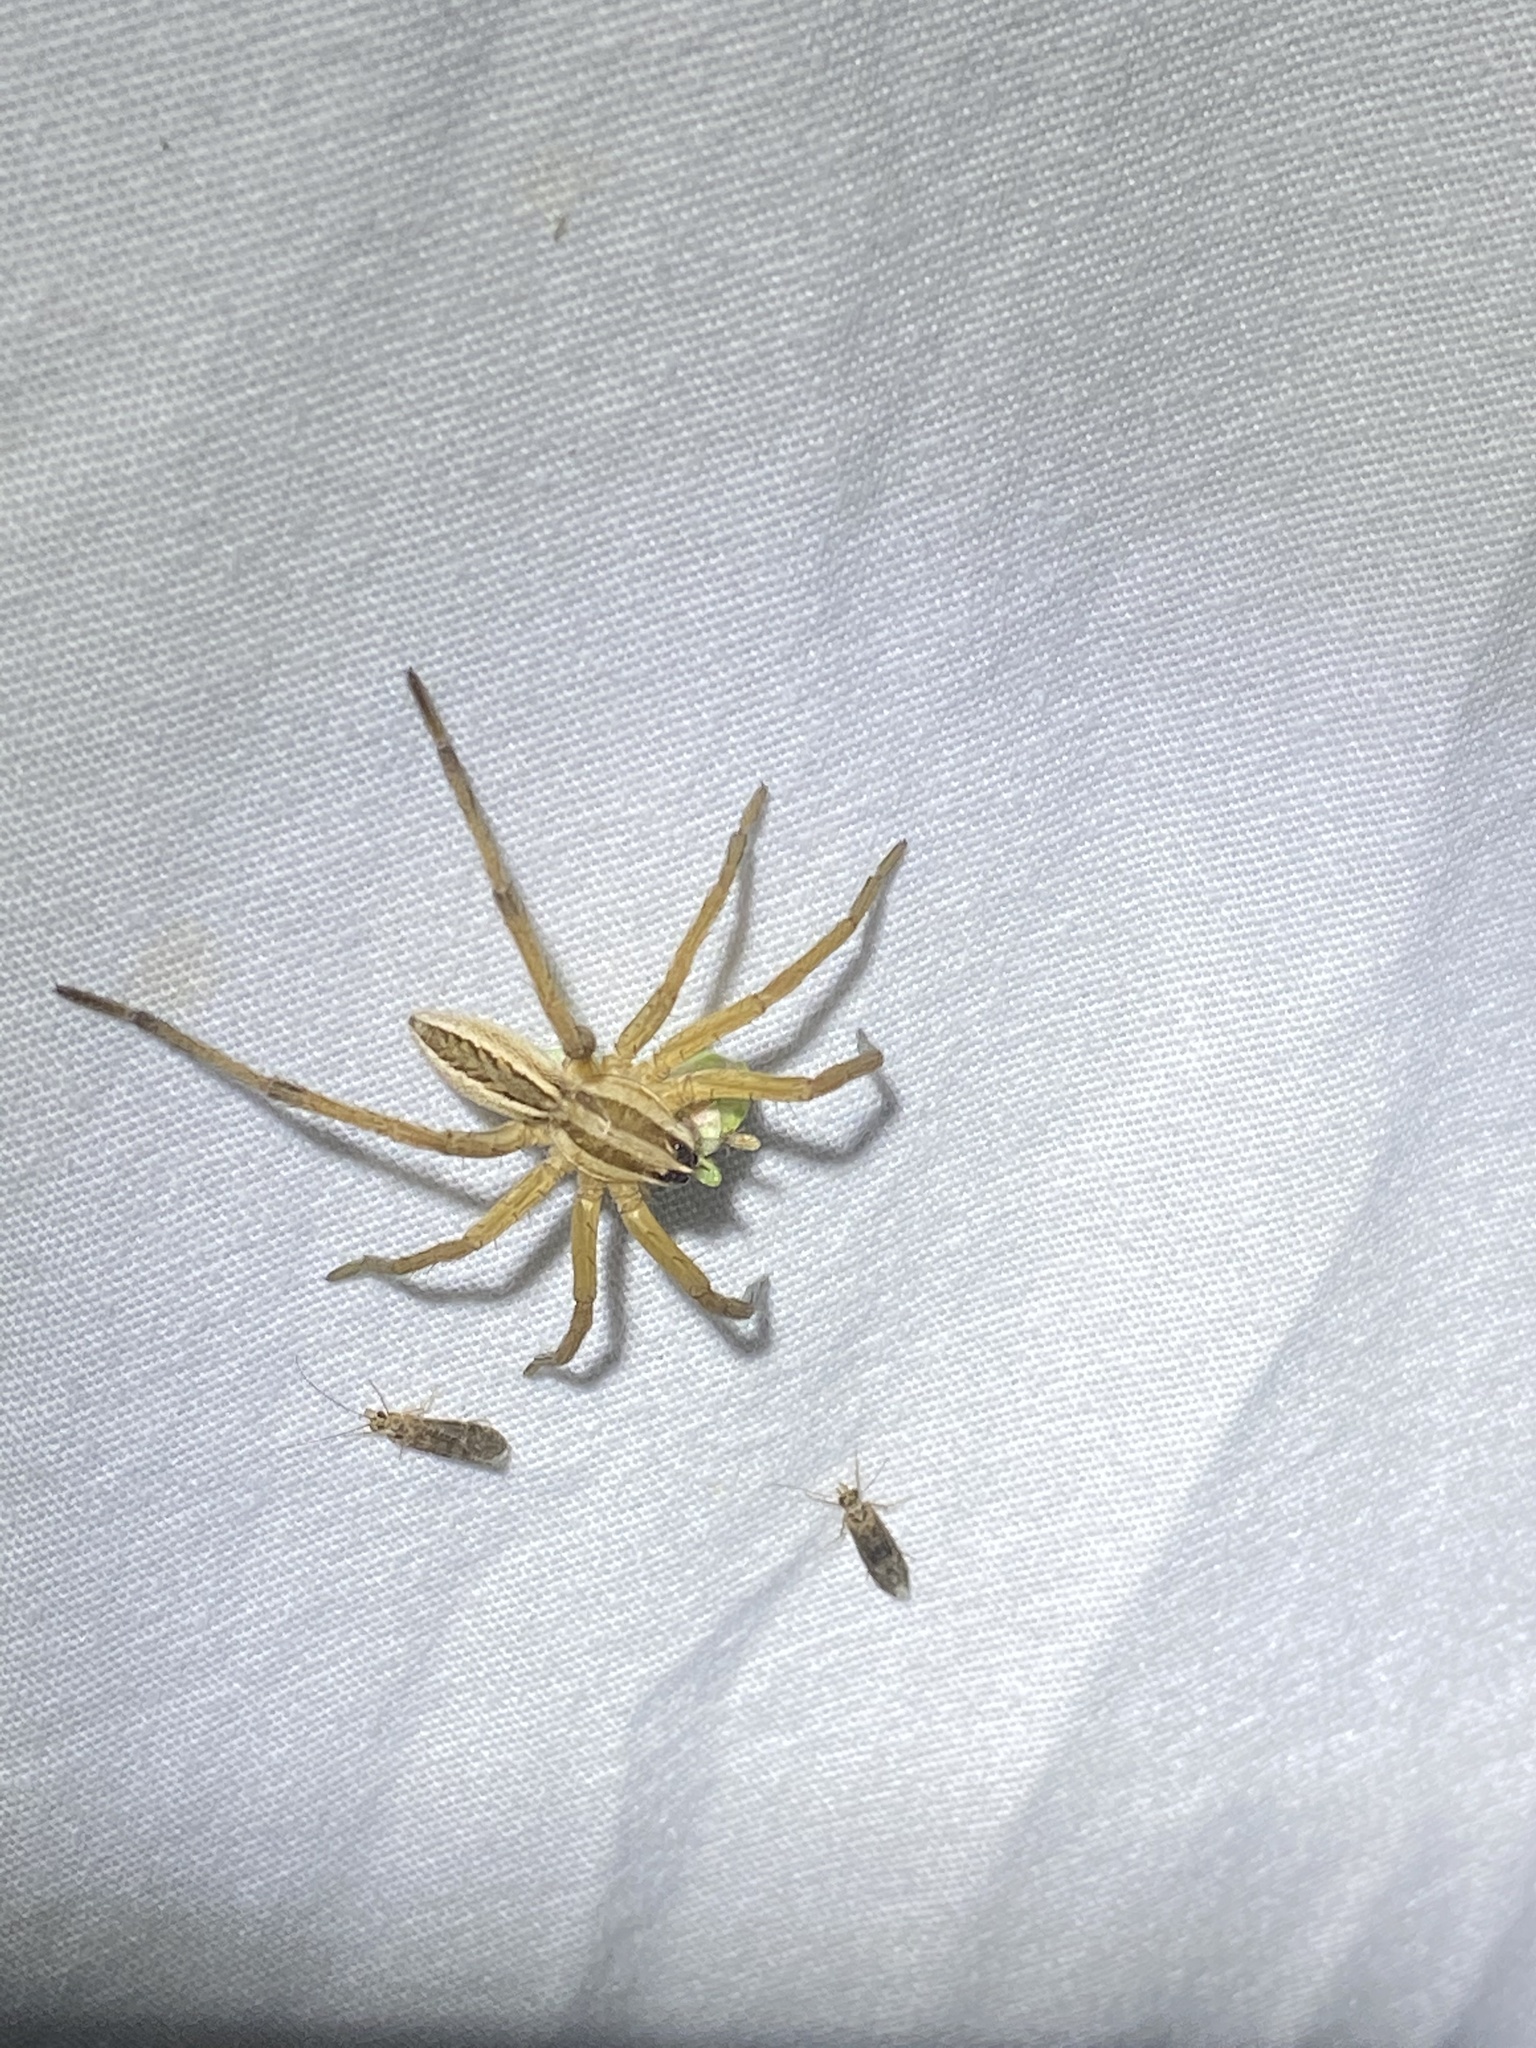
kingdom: Animalia
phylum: Arthropoda
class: Arachnida
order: Araneae
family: Lycosidae
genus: Rabidosa
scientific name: Rabidosa rabida
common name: Rabid wolf spider
